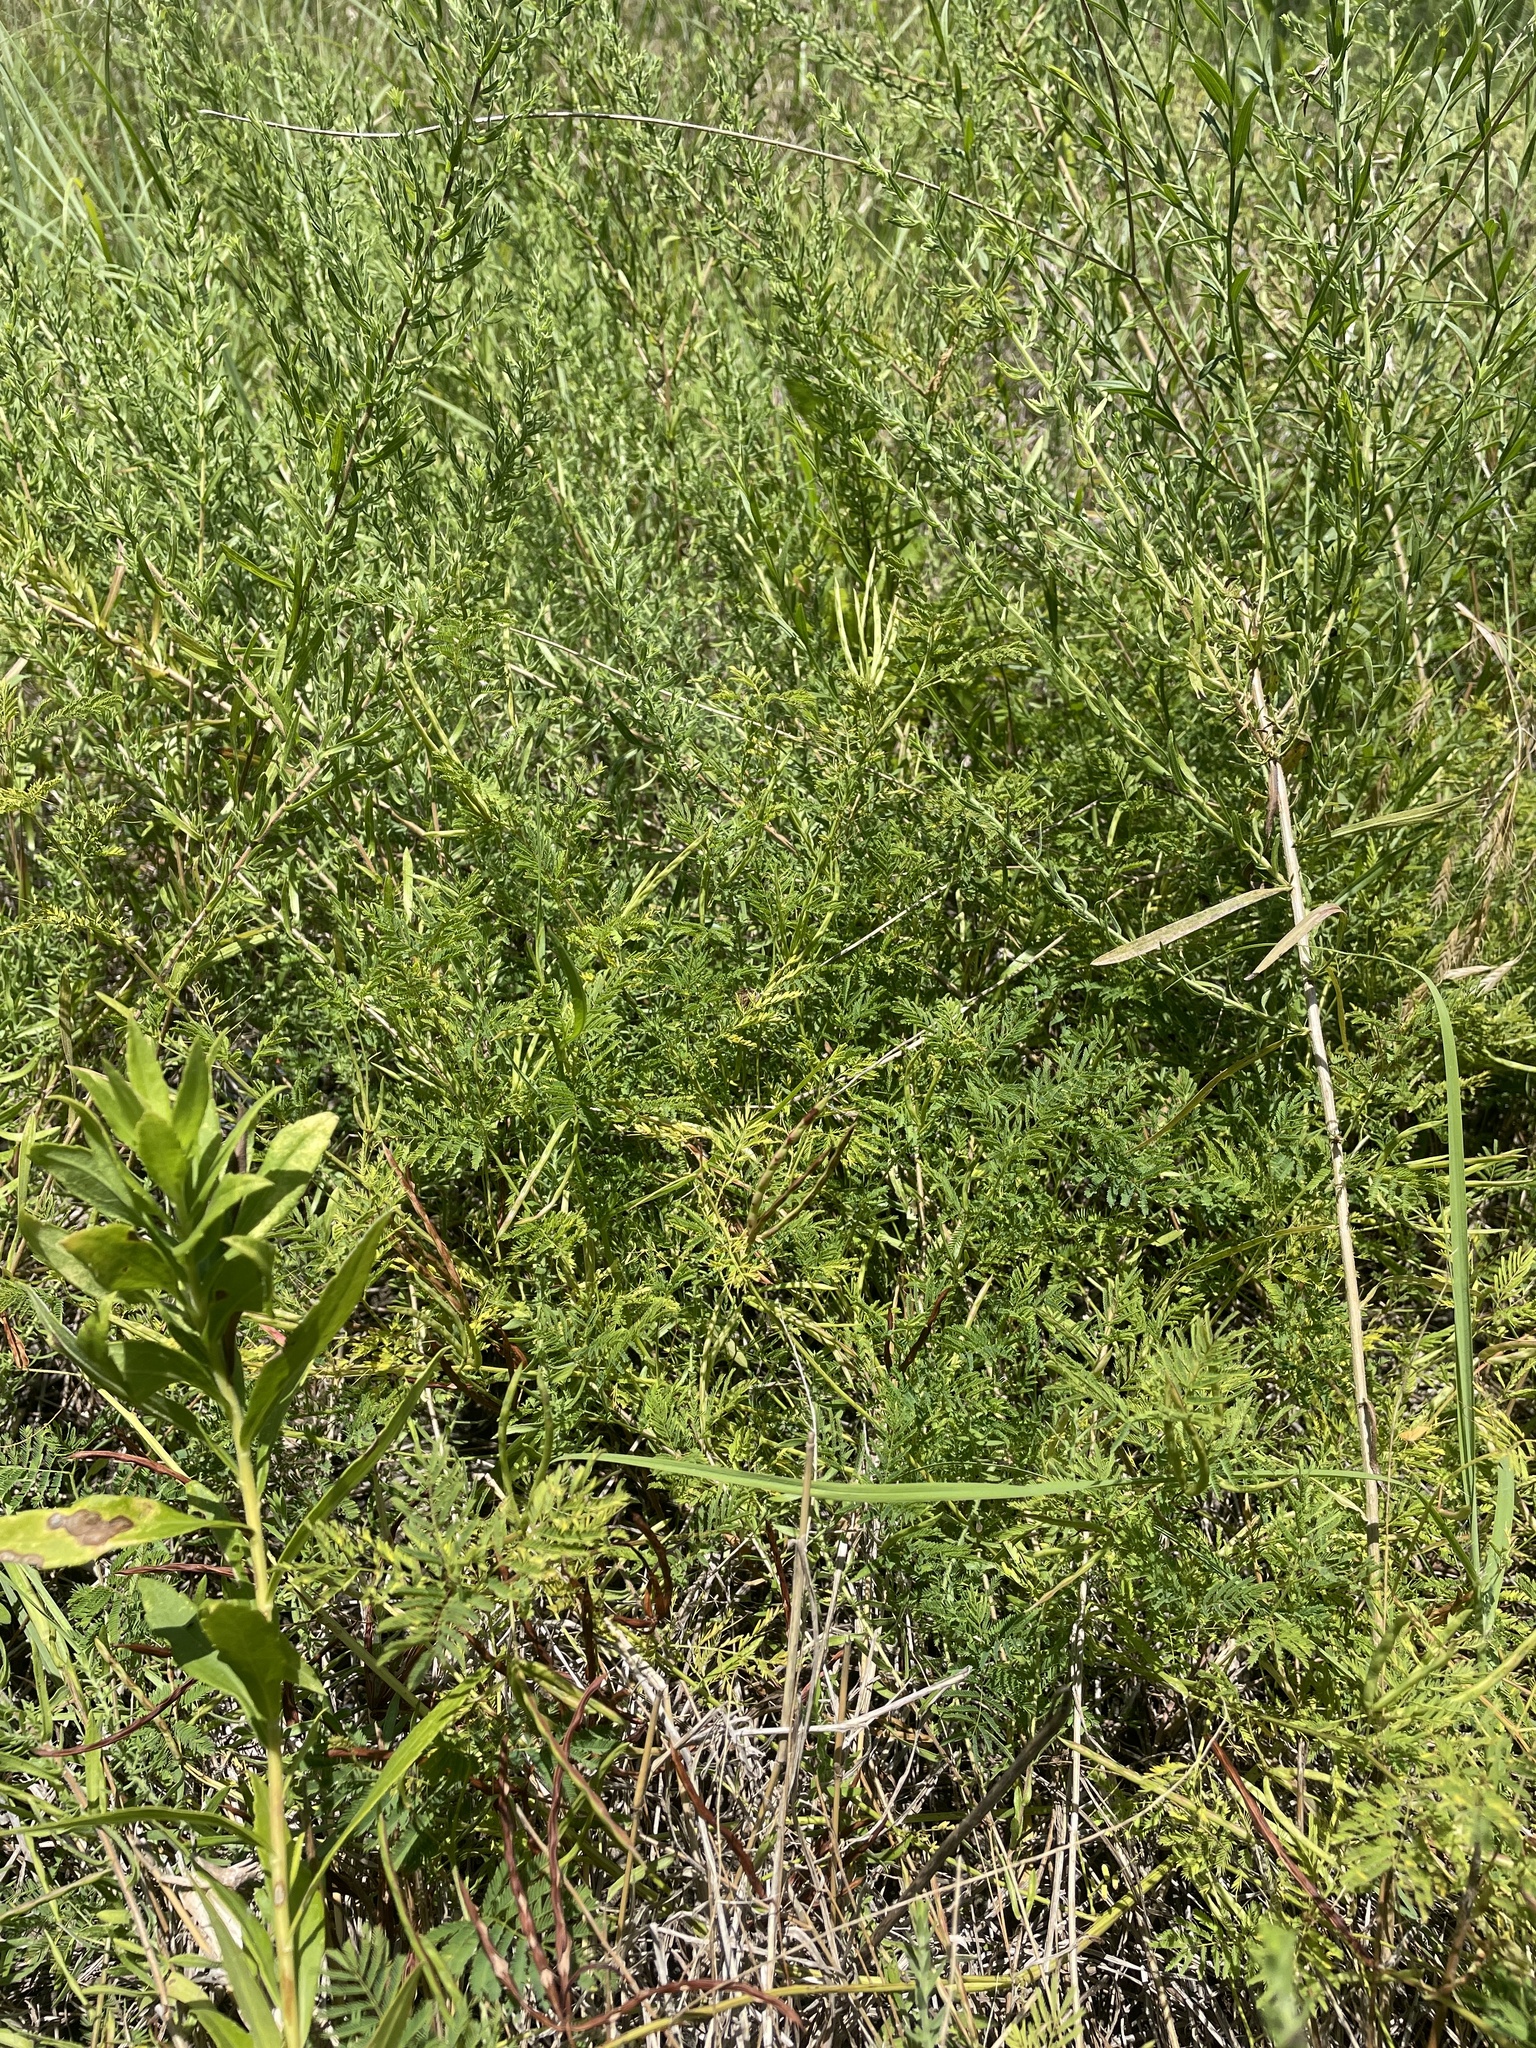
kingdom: Plantae
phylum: Tracheophyta
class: Magnoliopsida
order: Fabales
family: Fabaceae
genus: Desmanthus
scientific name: Desmanthus leptolobus
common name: Prairie-mimosa
